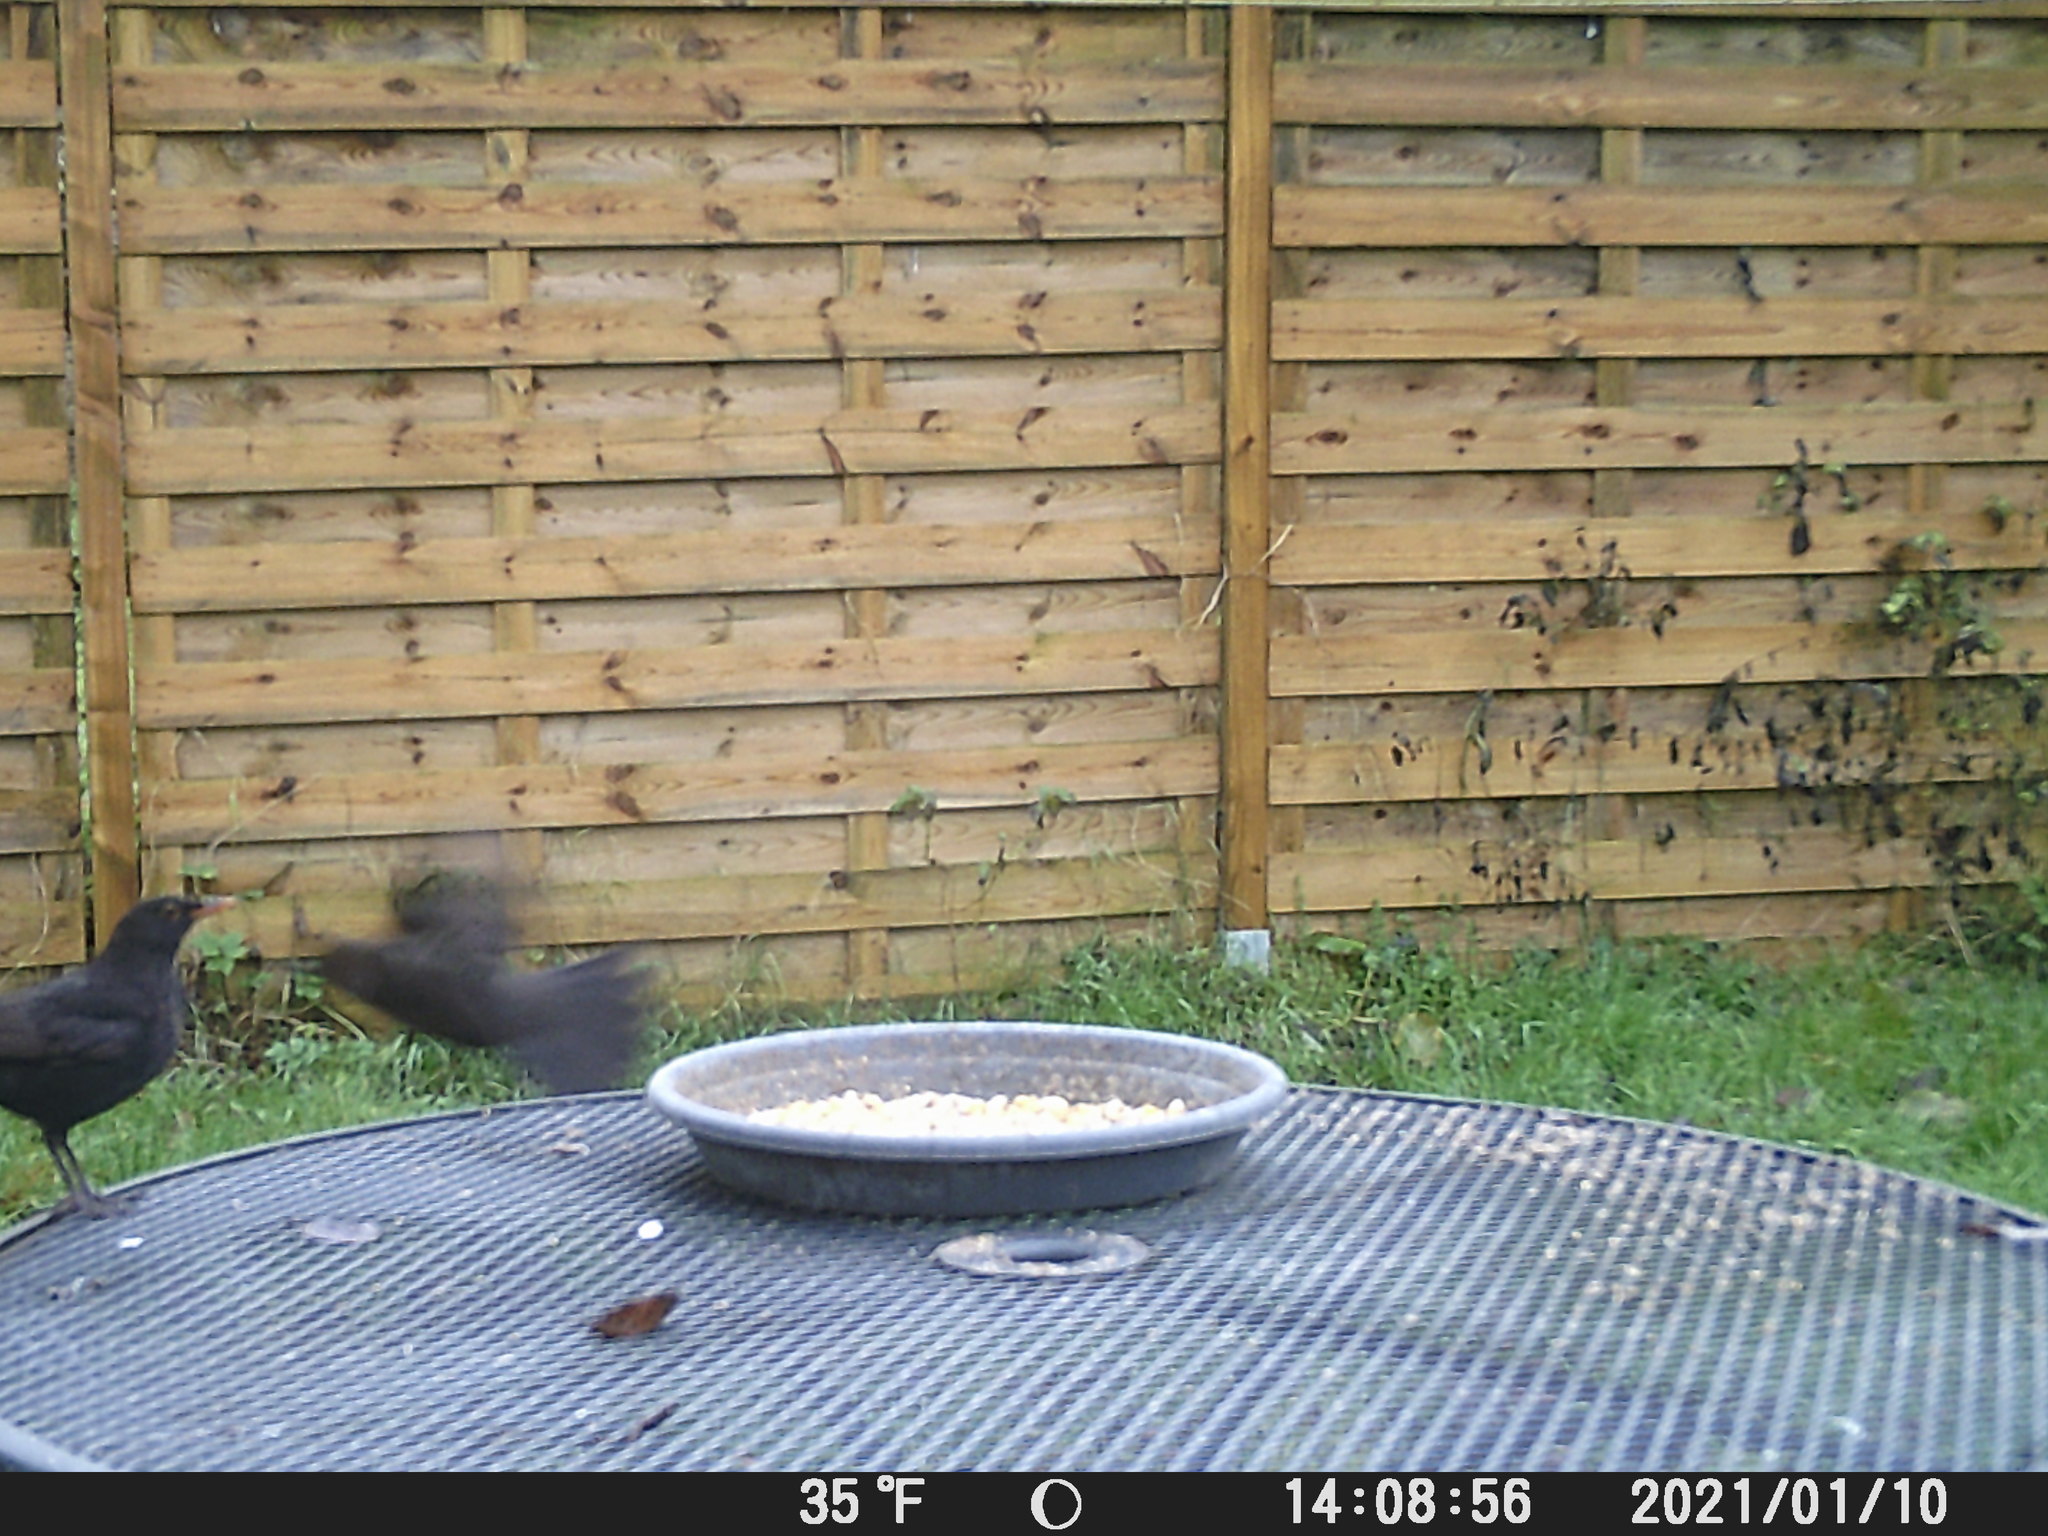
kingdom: Animalia
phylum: Chordata
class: Aves
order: Passeriformes
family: Turdidae
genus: Turdus
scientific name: Turdus merula
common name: Common blackbird
